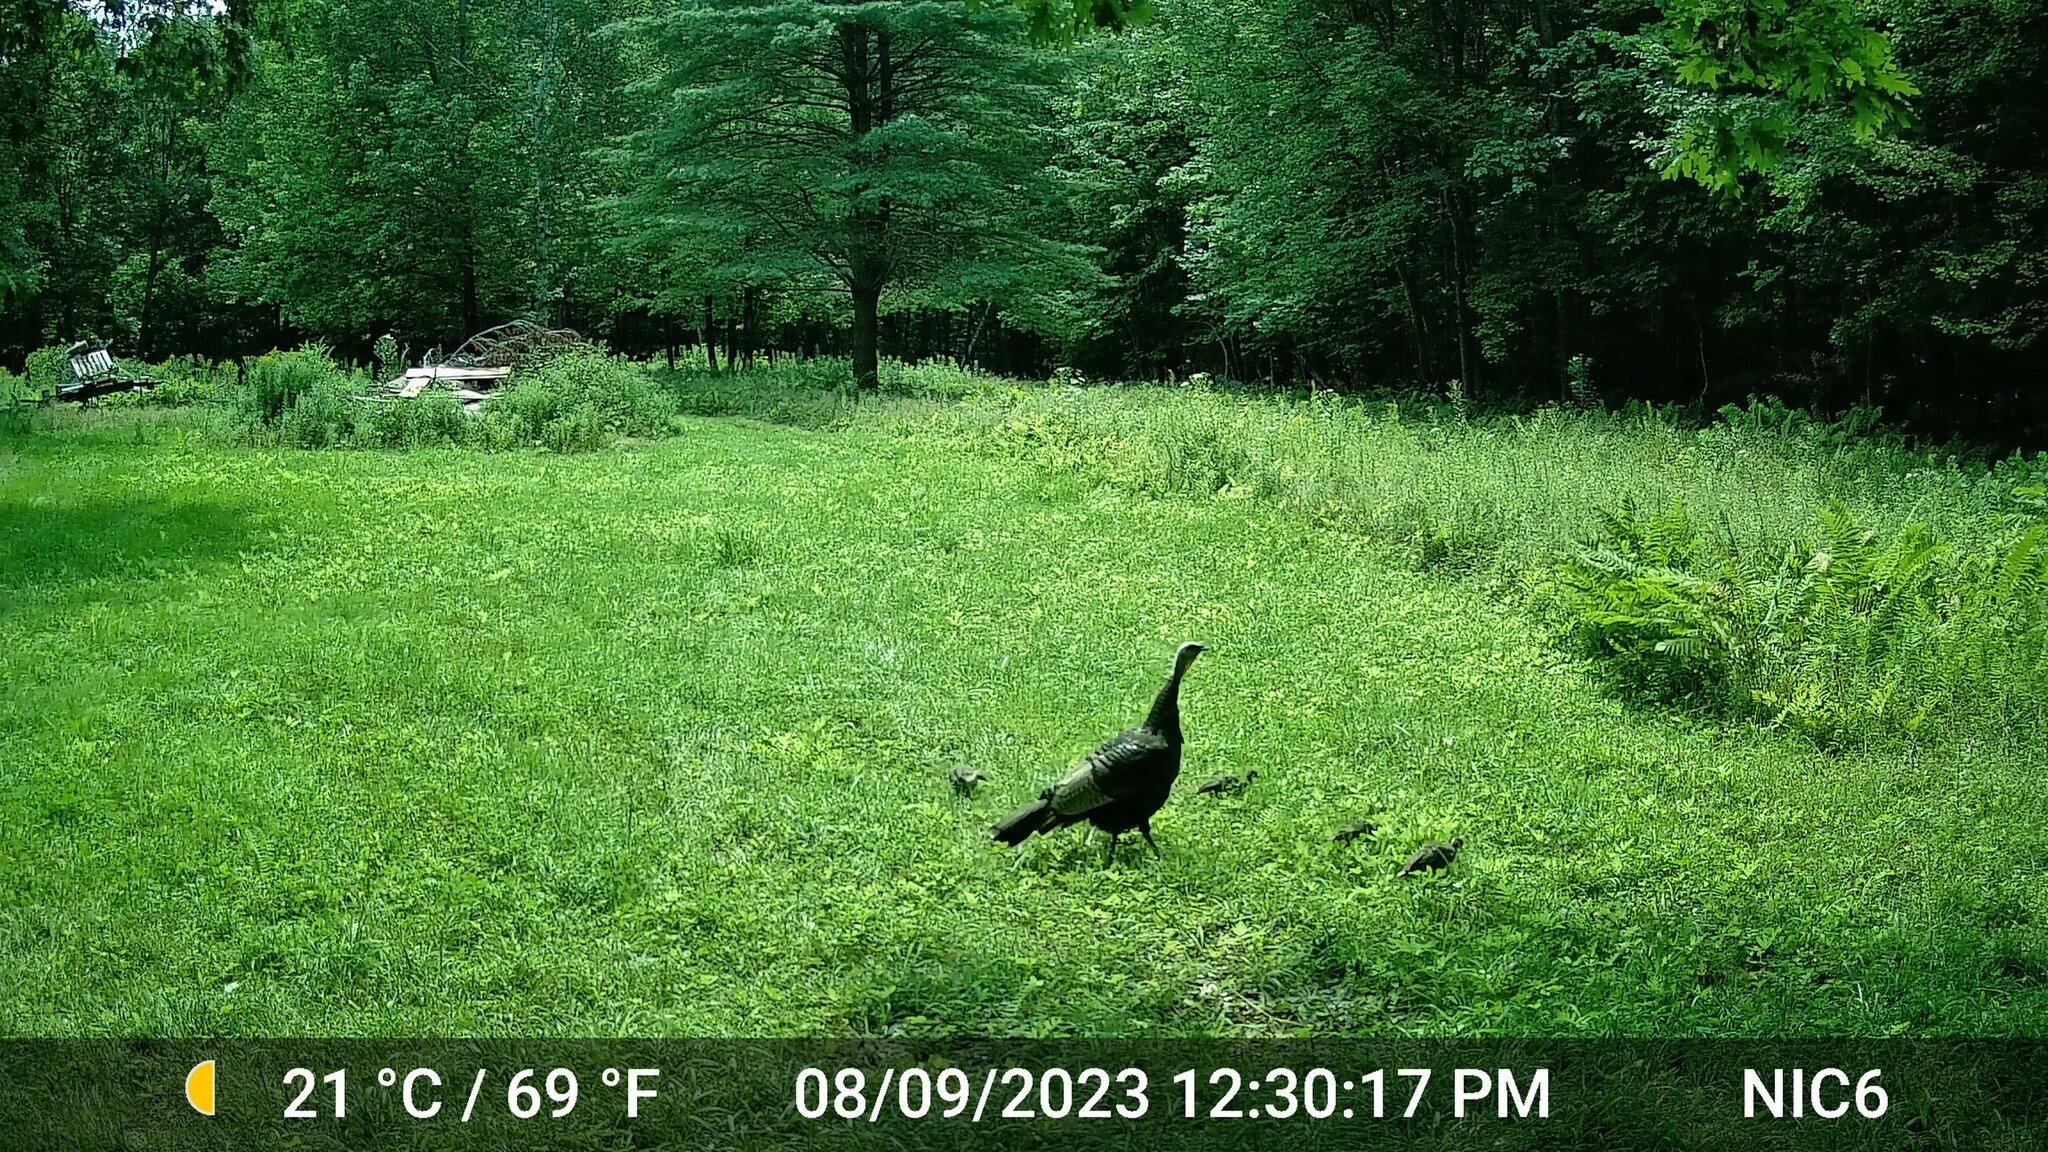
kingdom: Animalia
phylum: Chordata
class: Aves
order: Galliformes
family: Phasianidae
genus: Meleagris
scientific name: Meleagris gallopavo
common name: Wild turkey
